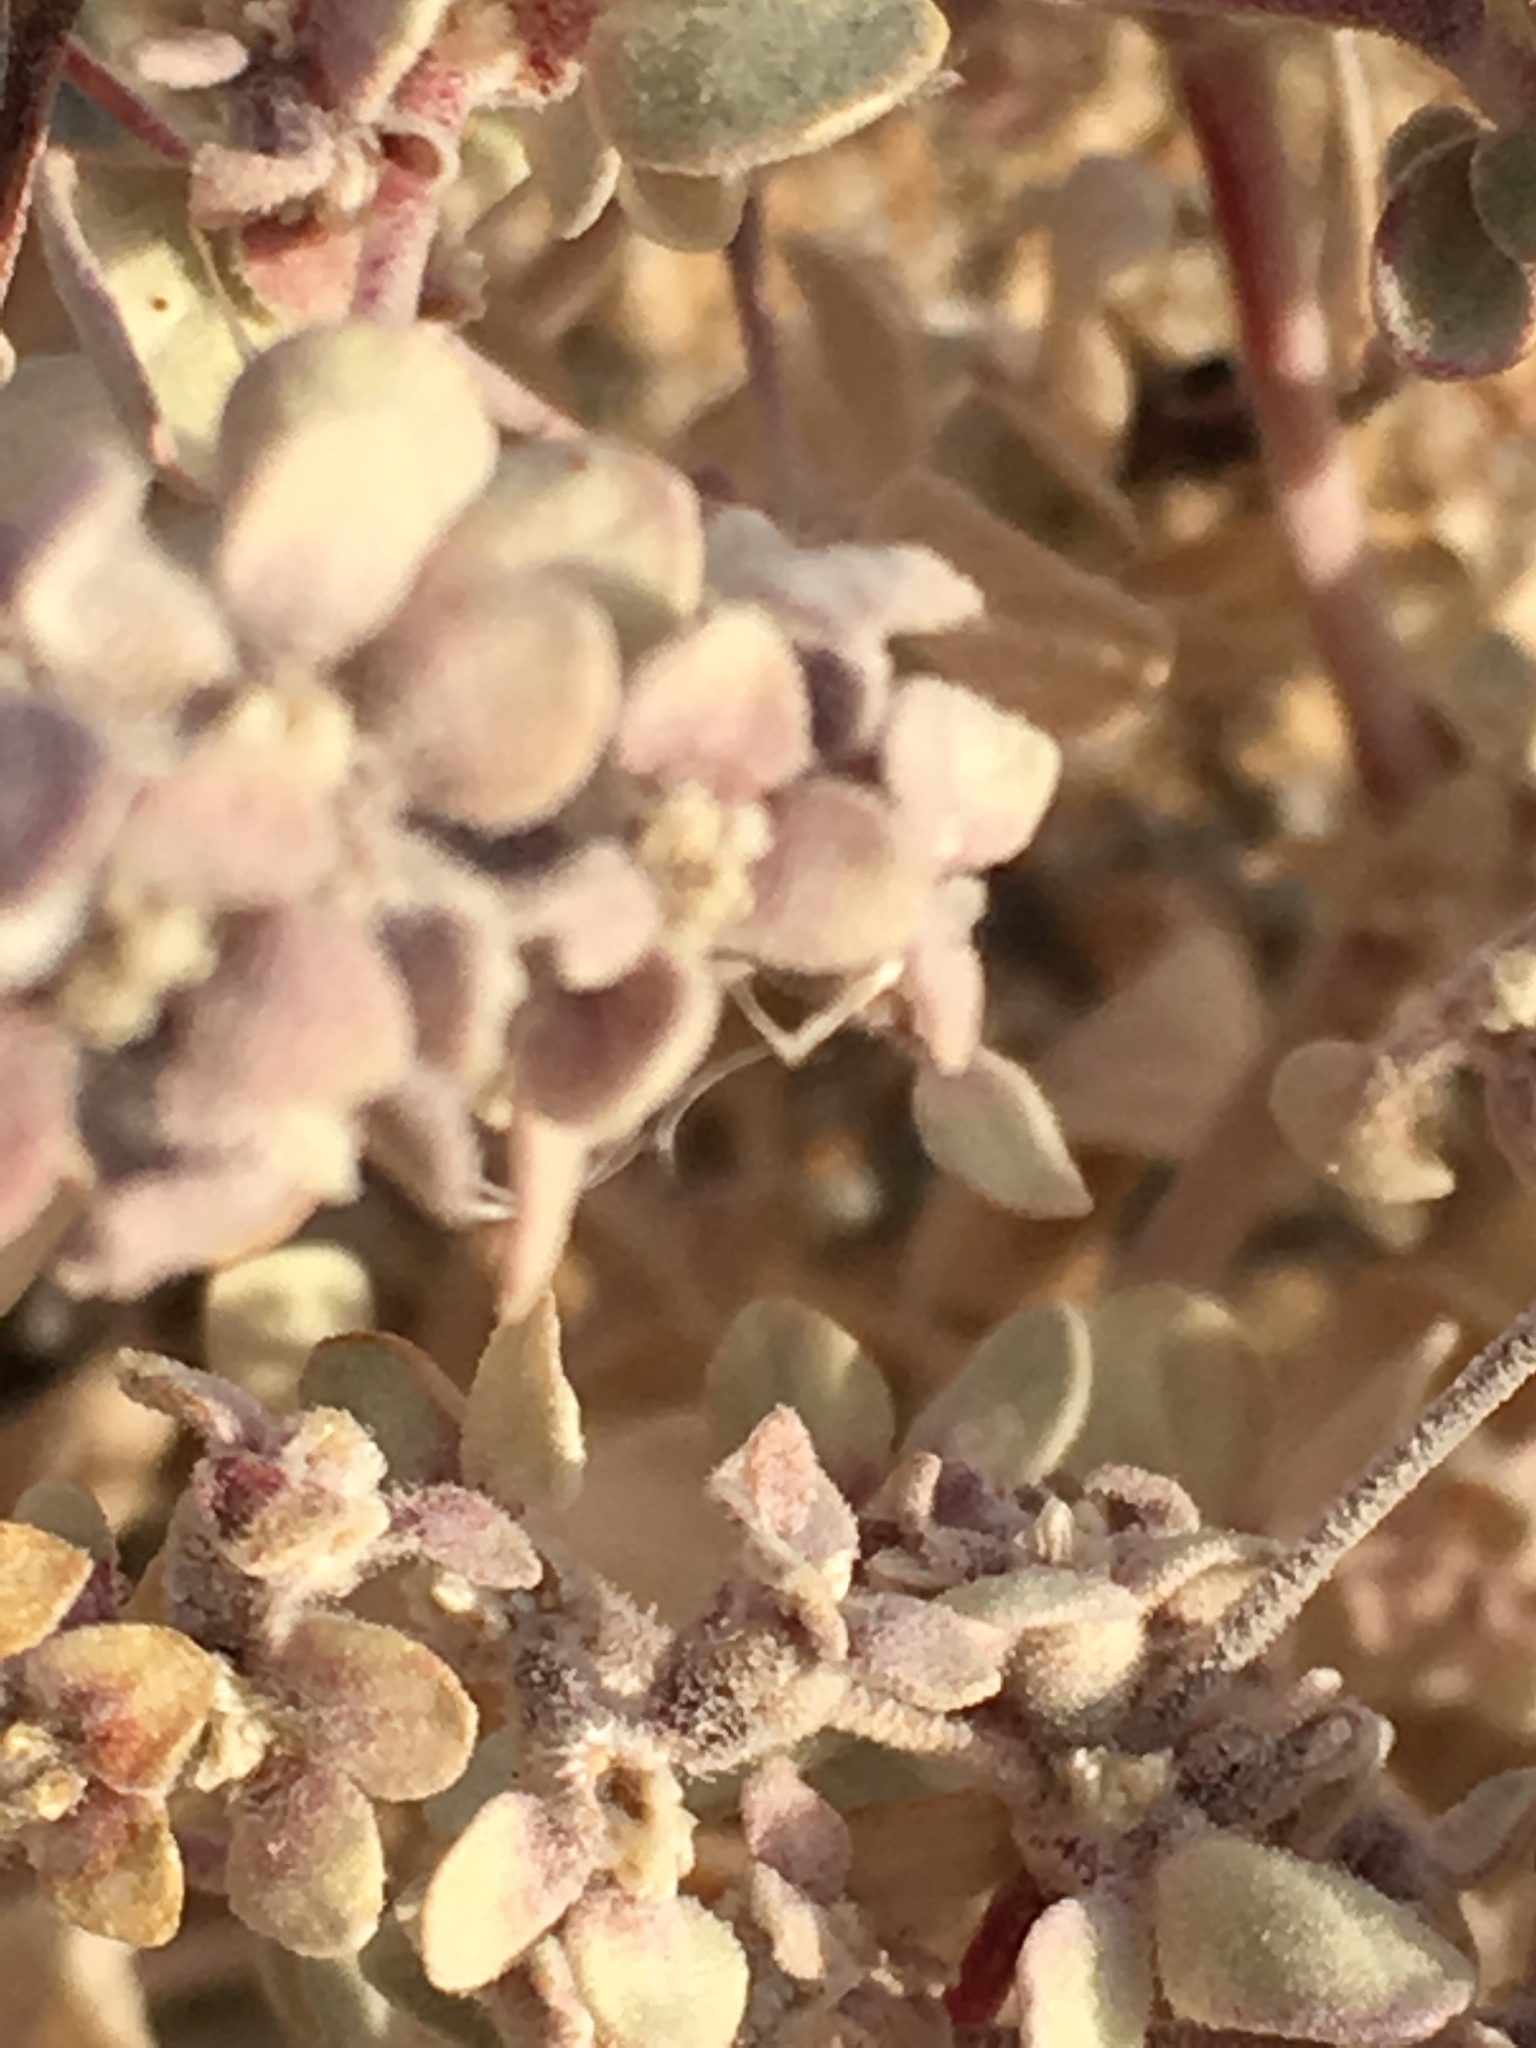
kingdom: Plantae
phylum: Tracheophyta
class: Magnoliopsida
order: Caryophyllales
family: Amaranthaceae
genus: Tidestromia
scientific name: Tidestromia suffruticosa
